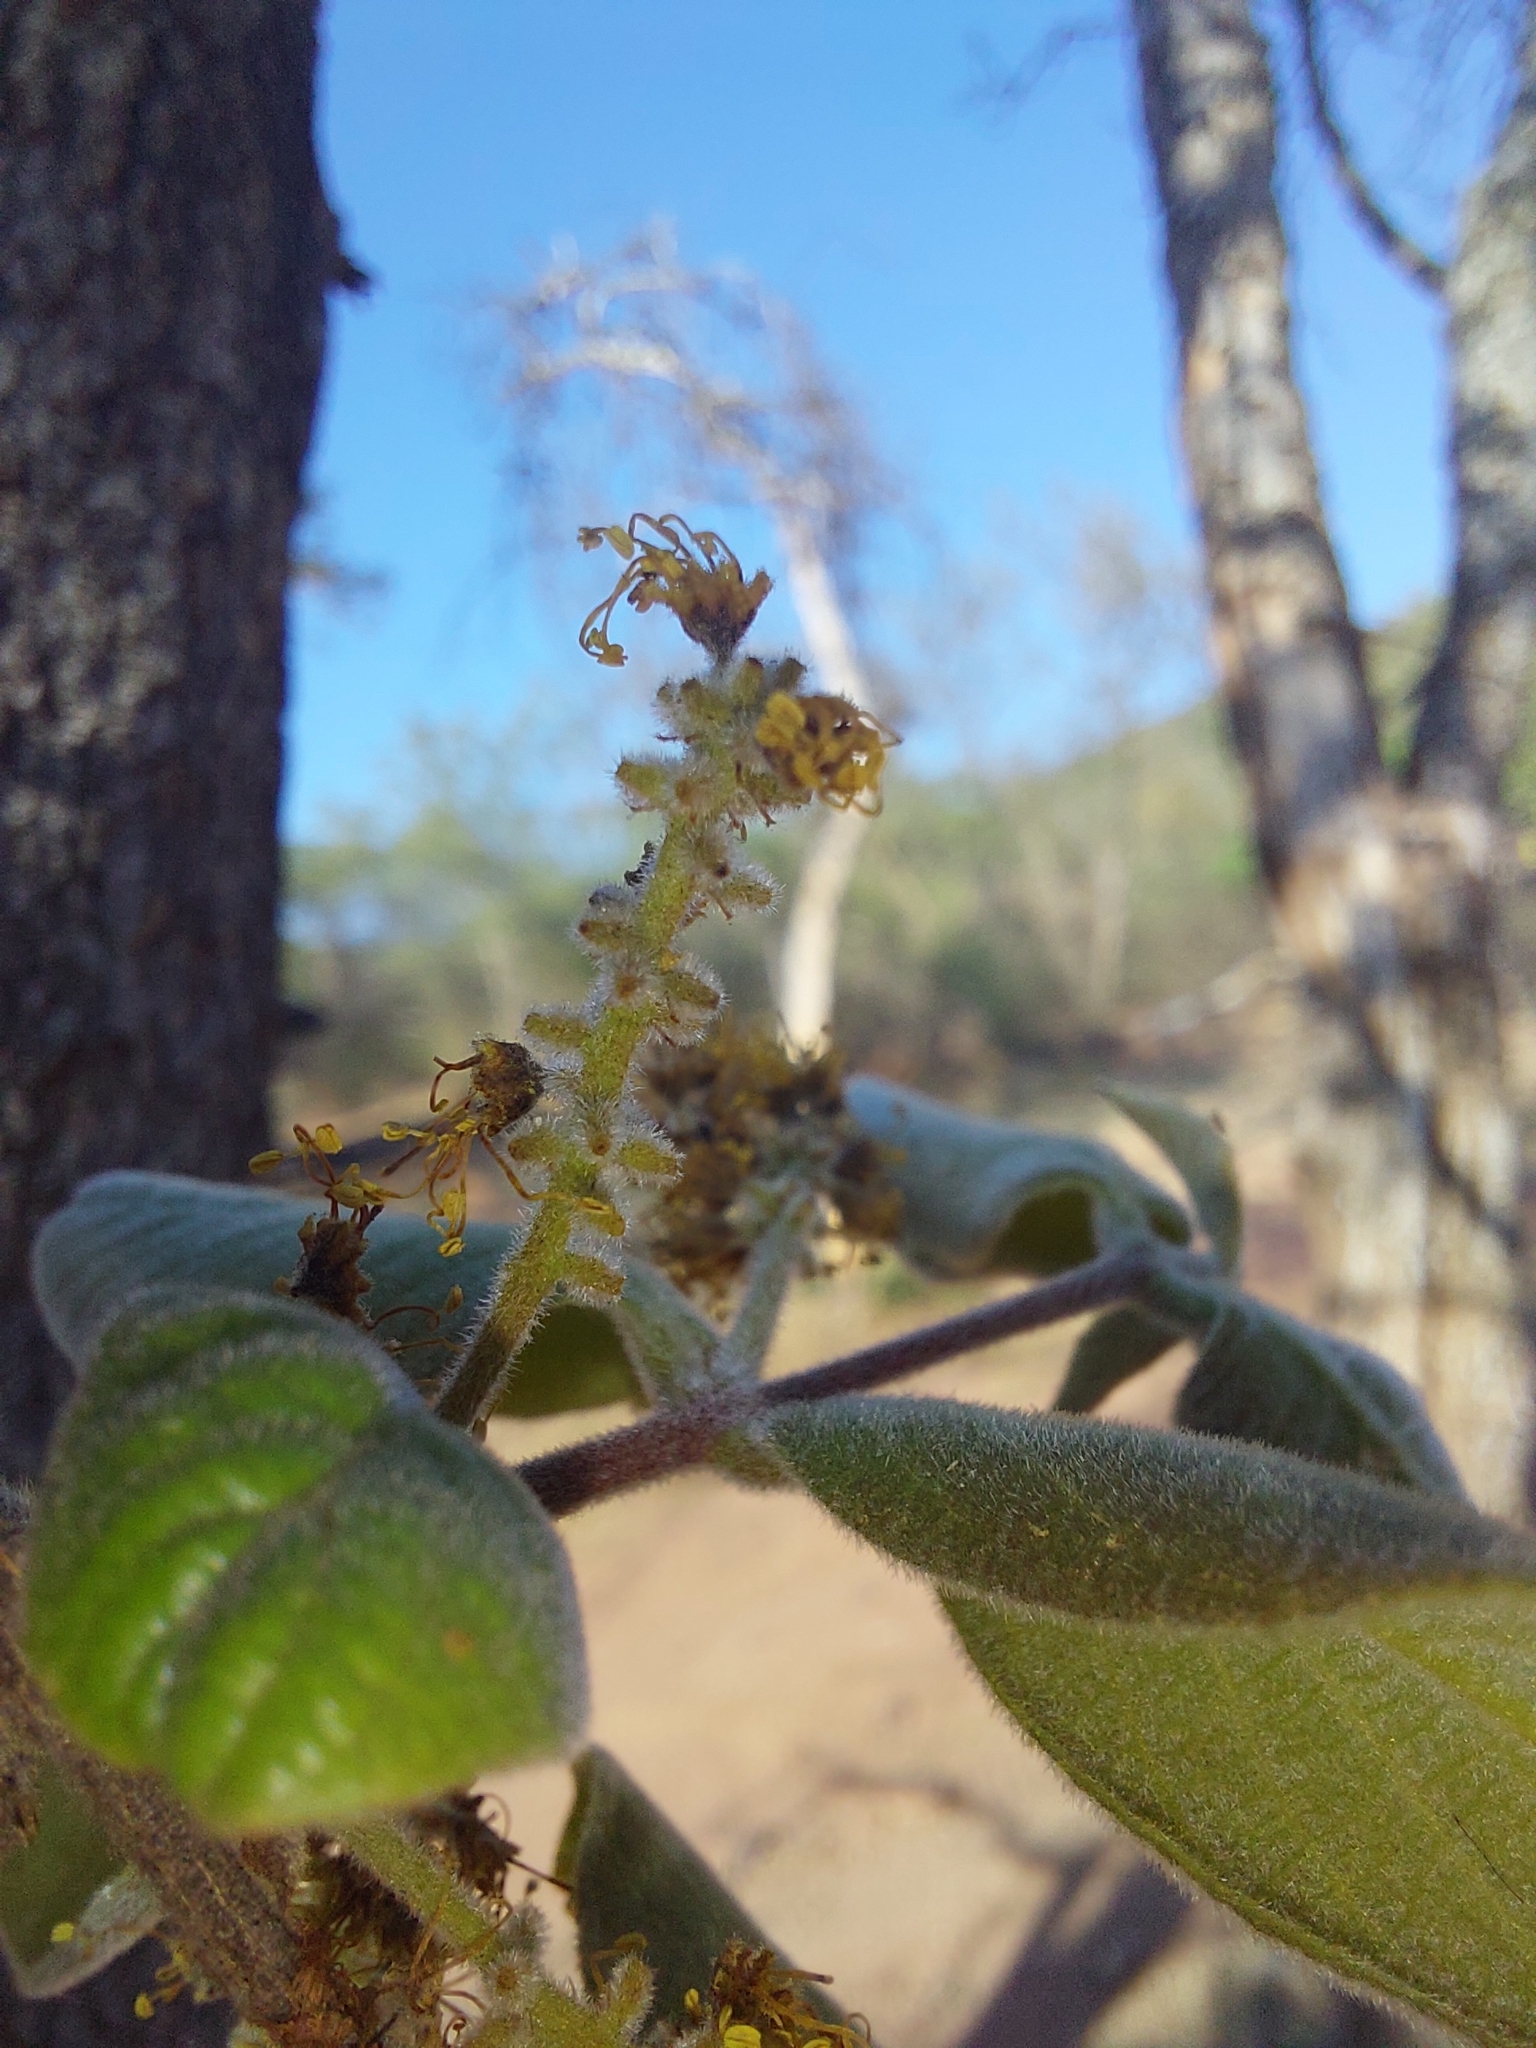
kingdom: Plantae
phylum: Tracheophyta
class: Magnoliopsida
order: Myrtales
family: Combretaceae
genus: Combretum
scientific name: Combretum molle
